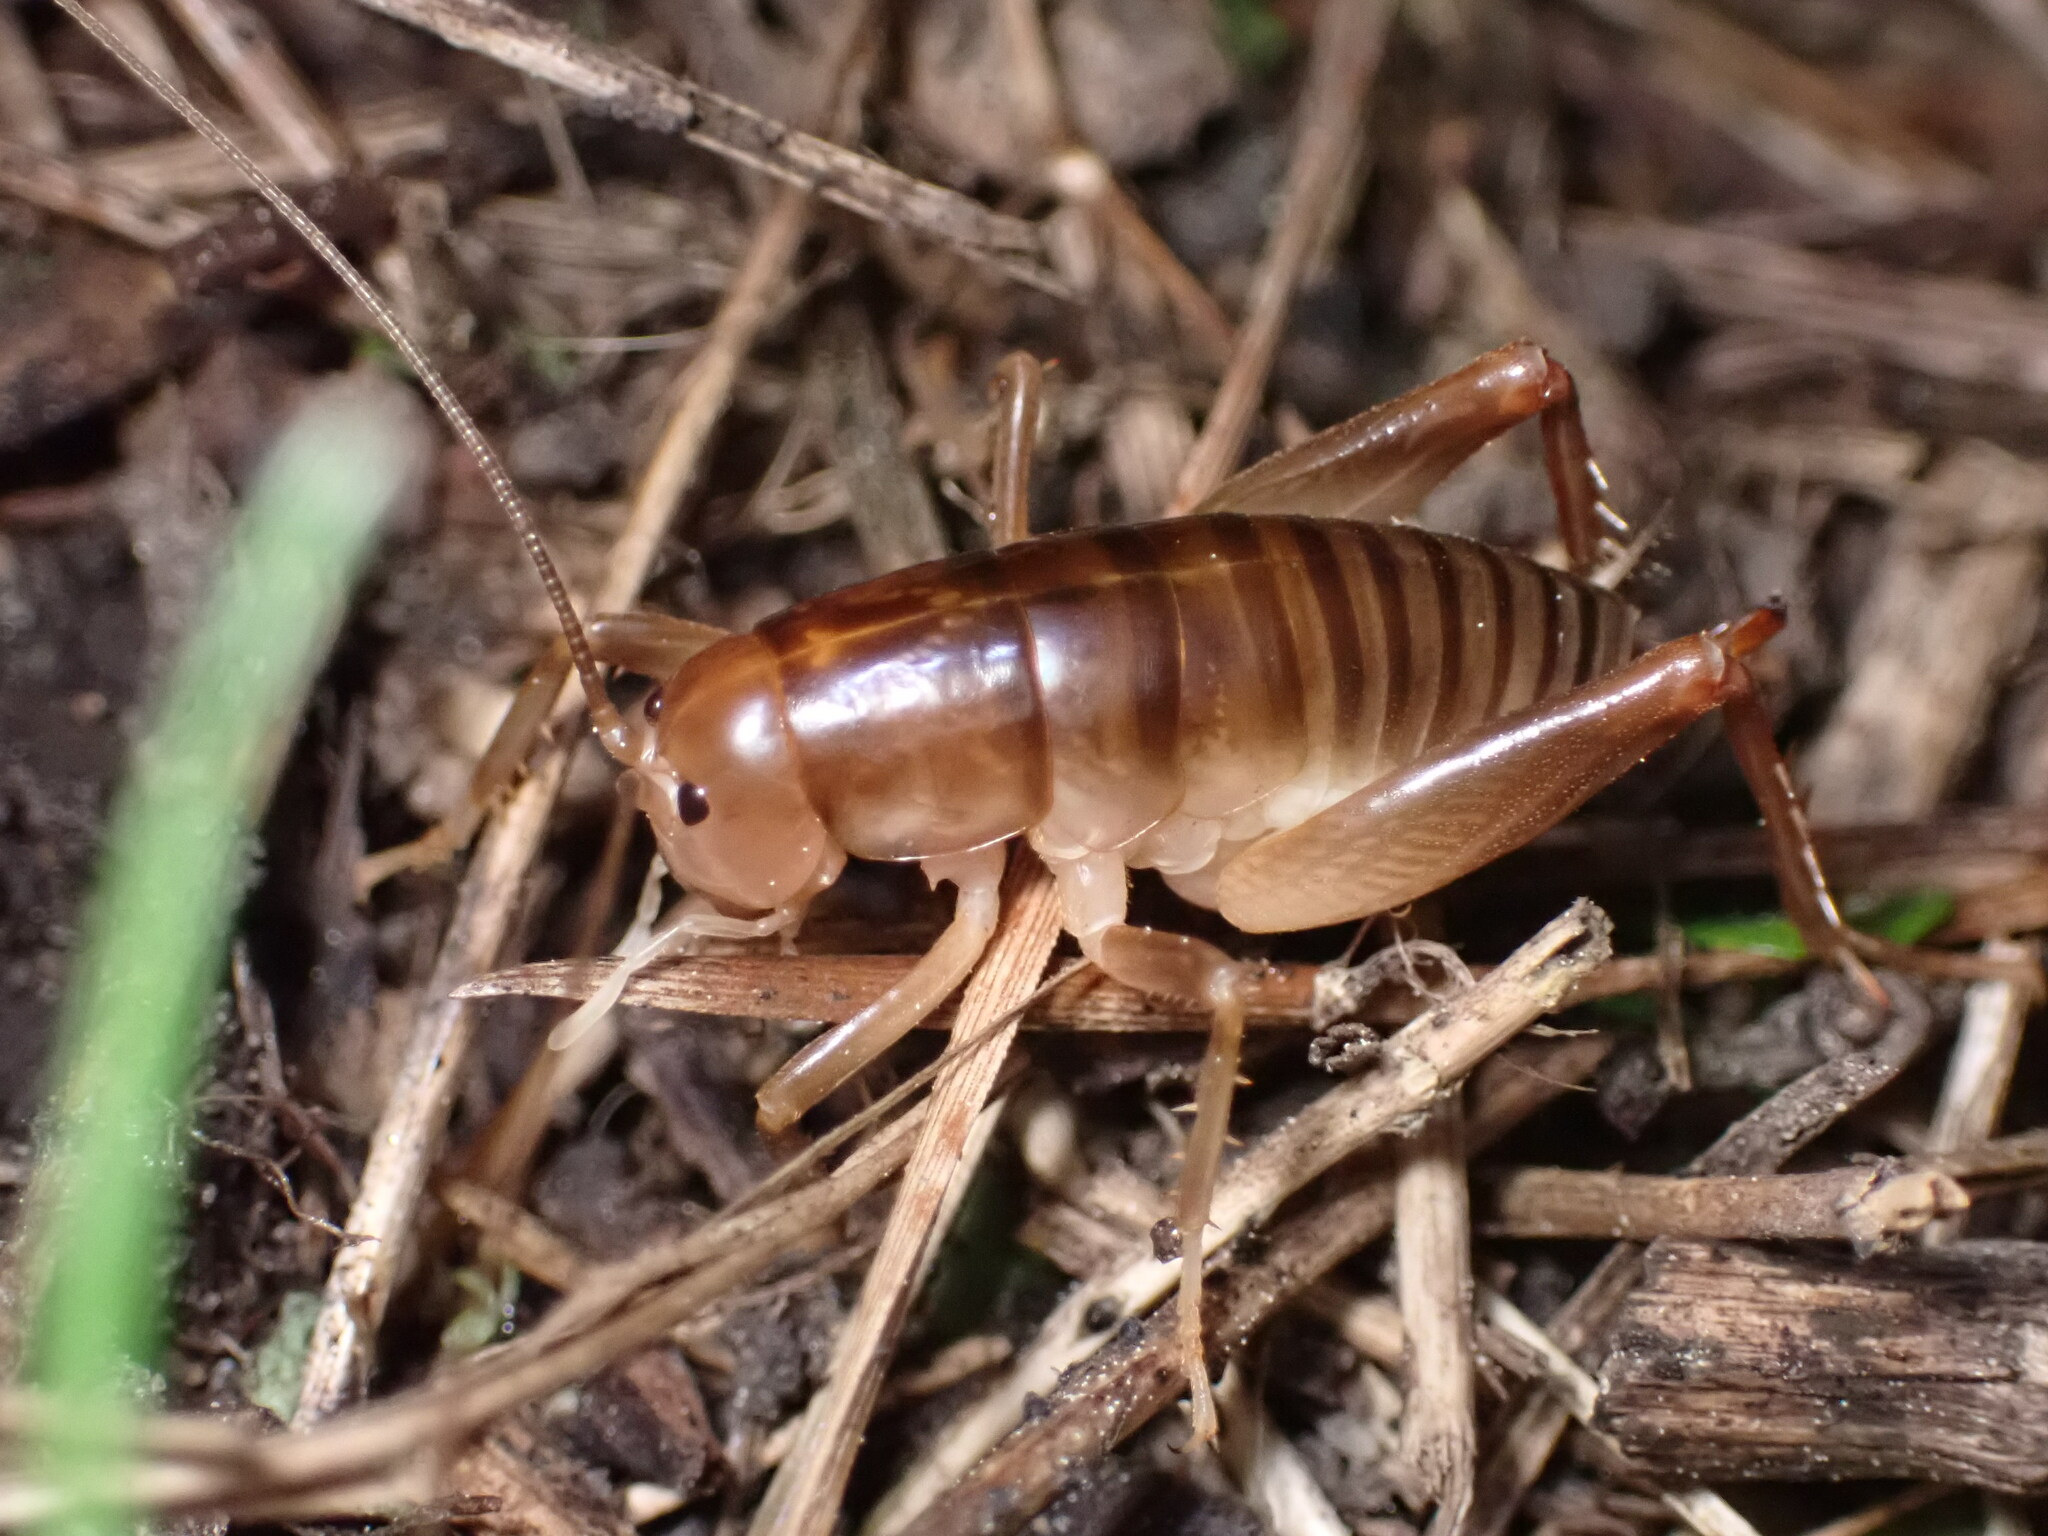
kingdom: Animalia
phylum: Arthropoda
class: Insecta
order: Orthoptera
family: Rhaphidophoridae
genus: Ceuthophilus
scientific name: Ceuthophilus californianus
